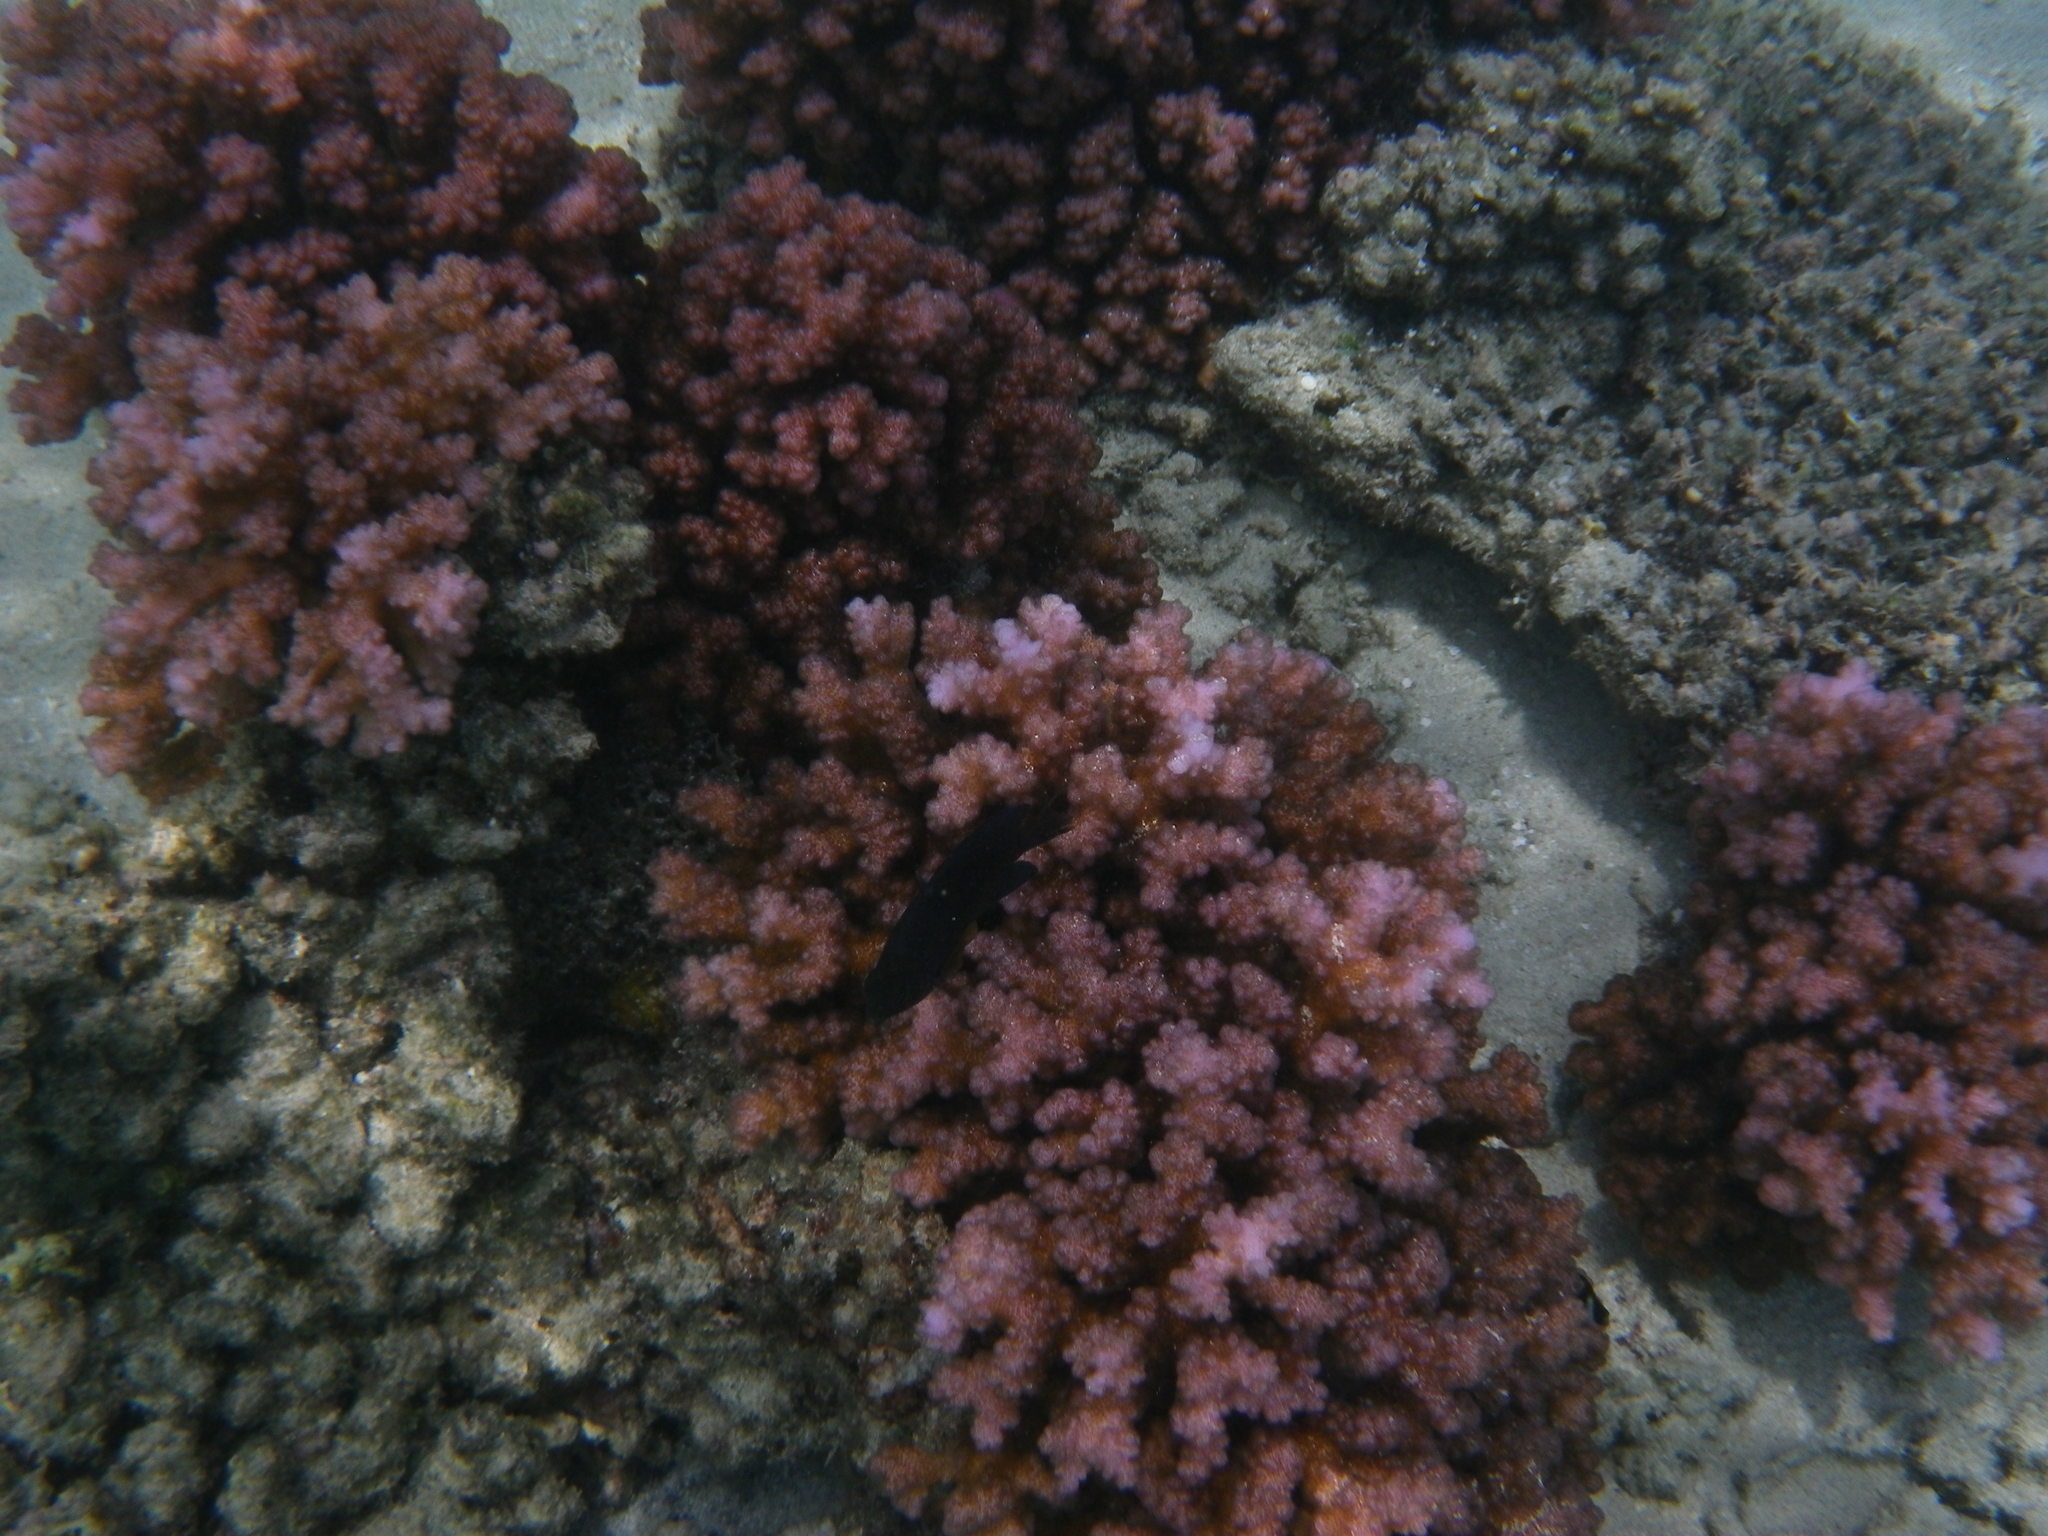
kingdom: Animalia
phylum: Cnidaria
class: Anthozoa
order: Scleractinia
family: Pocilloporidae
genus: Pocillopora
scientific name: Pocillopora damicornis
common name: Cauliflower coral
